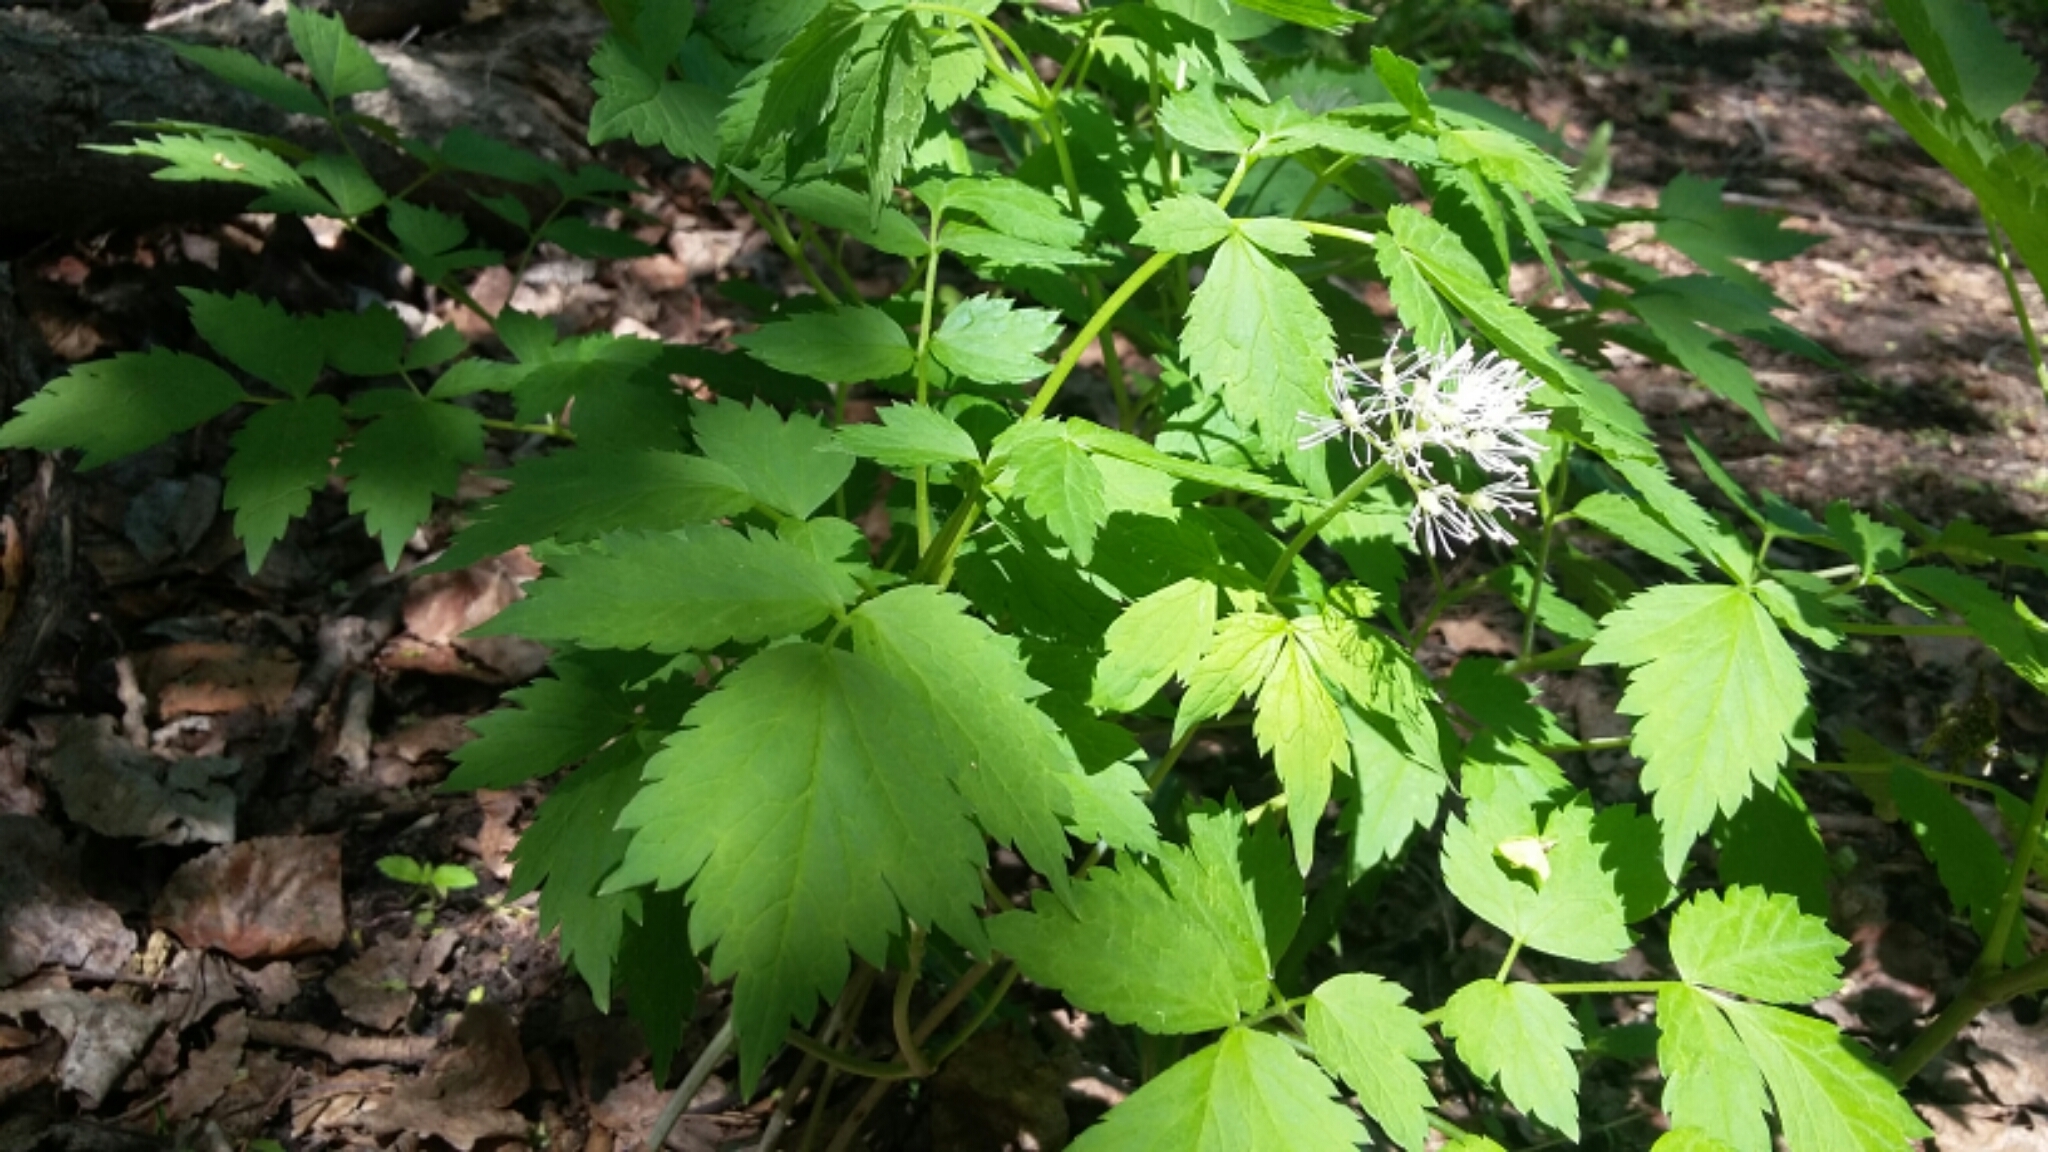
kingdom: Plantae
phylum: Tracheophyta
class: Magnoliopsida
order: Ranunculales
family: Ranunculaceae
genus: Actaea
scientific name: Actaea rubra
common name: Red baneberry
